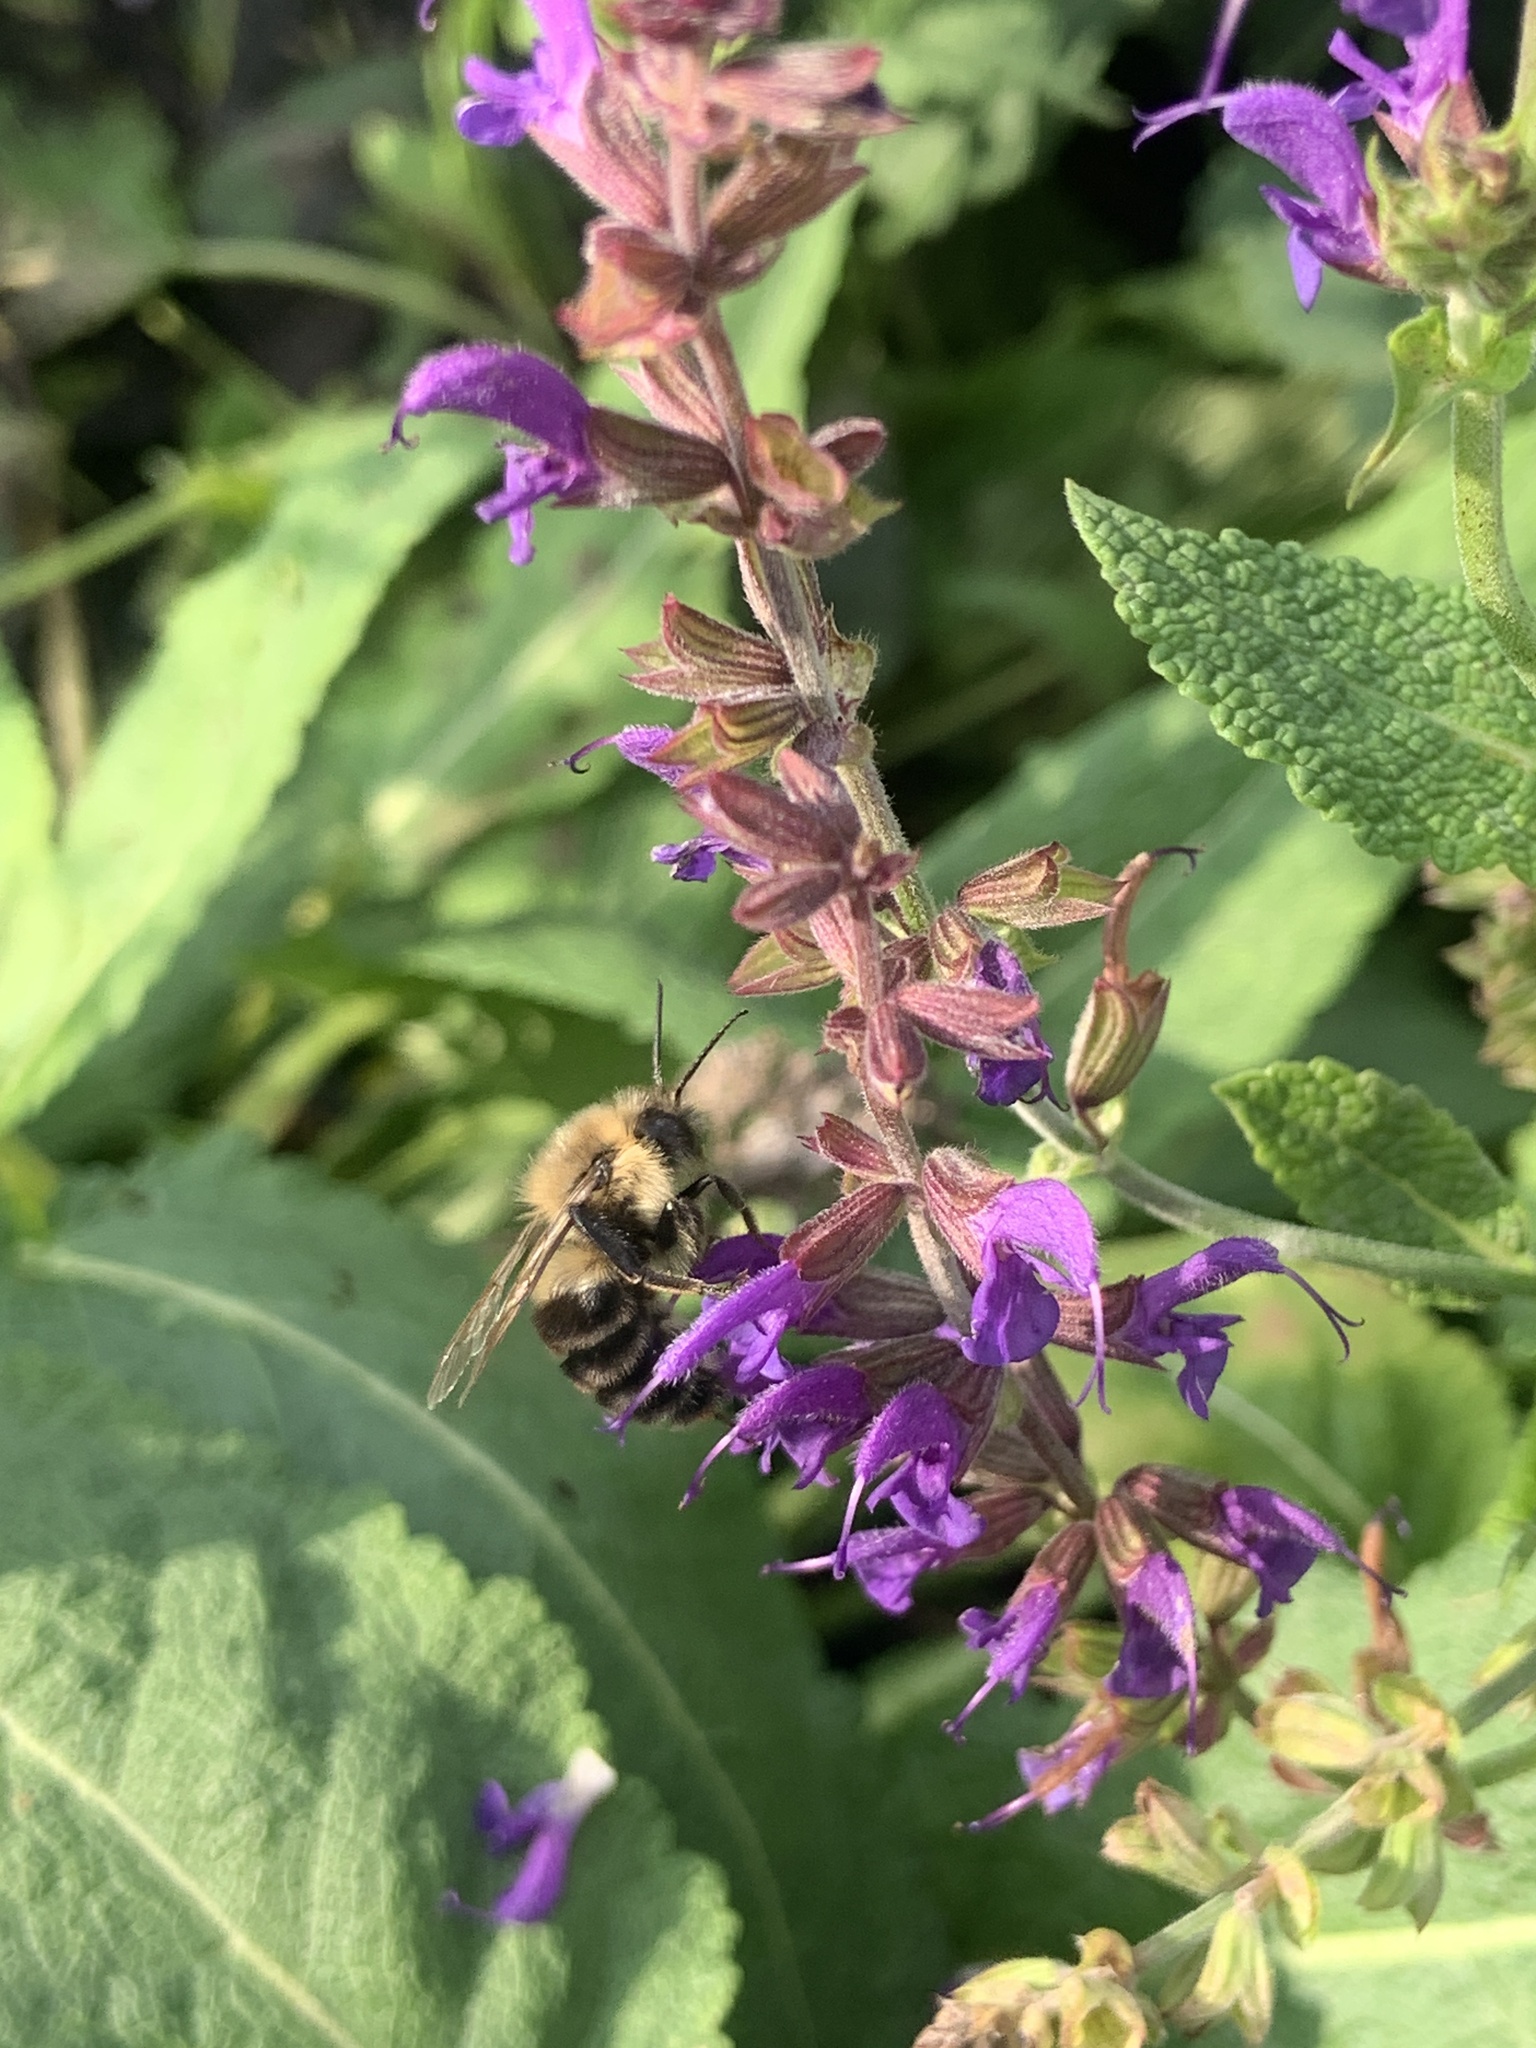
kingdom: Animalia
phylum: Arthropoda
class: Insecta
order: Hymenoptera
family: Apidae
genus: Bombus
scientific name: Bombus impatiens
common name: Common eastern bumble bee
